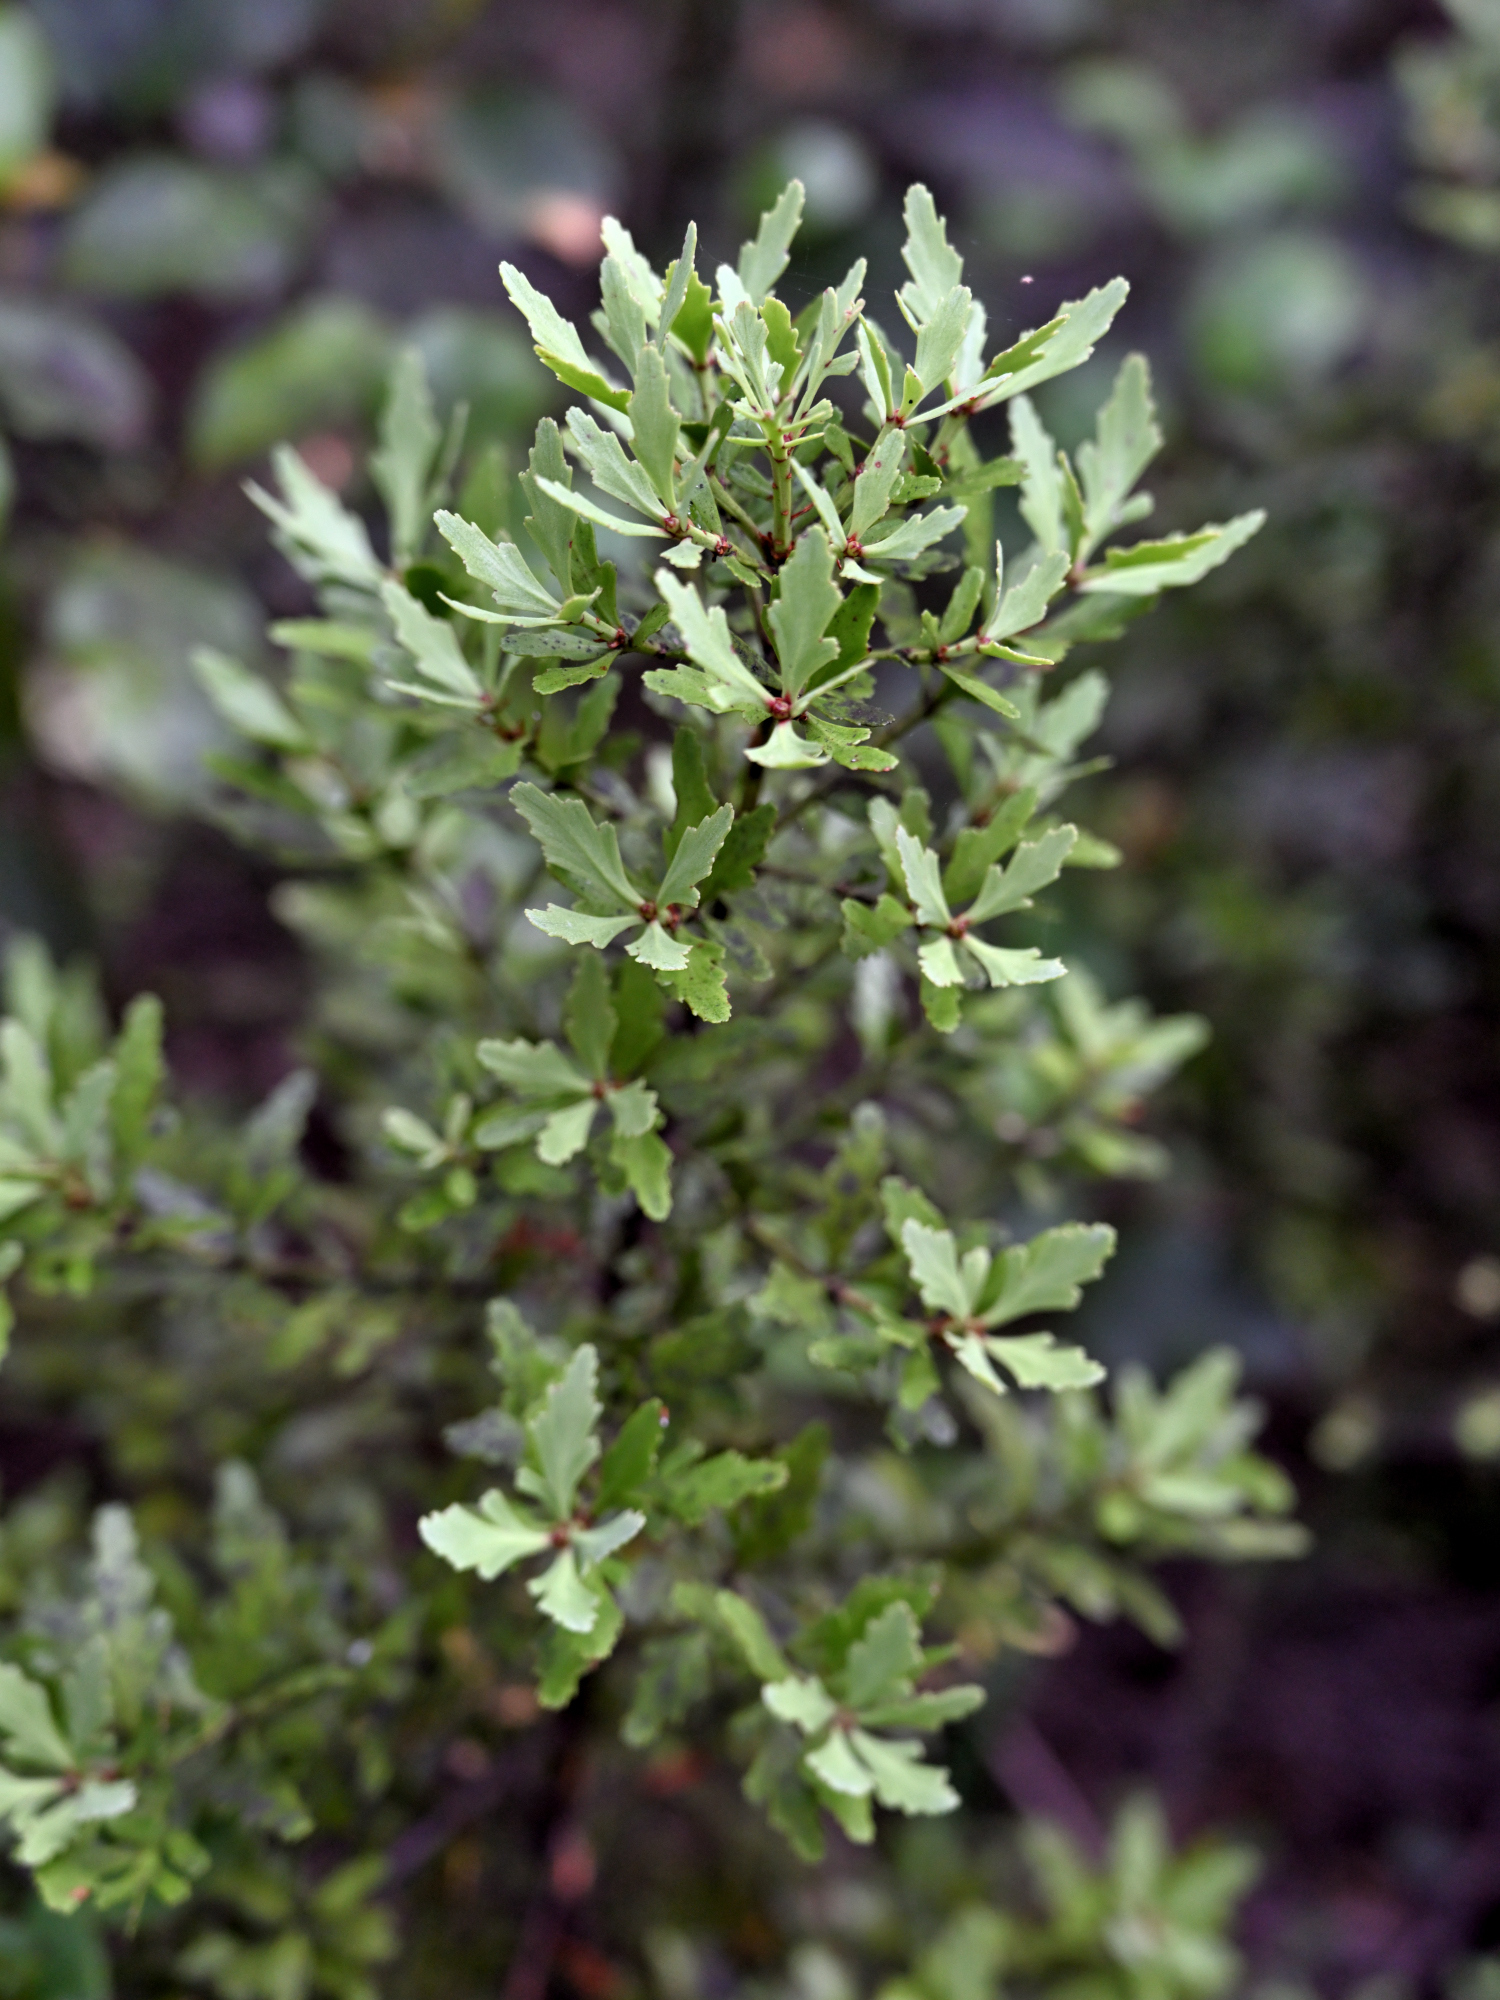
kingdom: Plantae
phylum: Tracheophyta
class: Pinopsida
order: Pinales
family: Phyllocladaceae
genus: Phyllocladus
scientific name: Phyllocladus trichomanoides
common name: Celery pine
